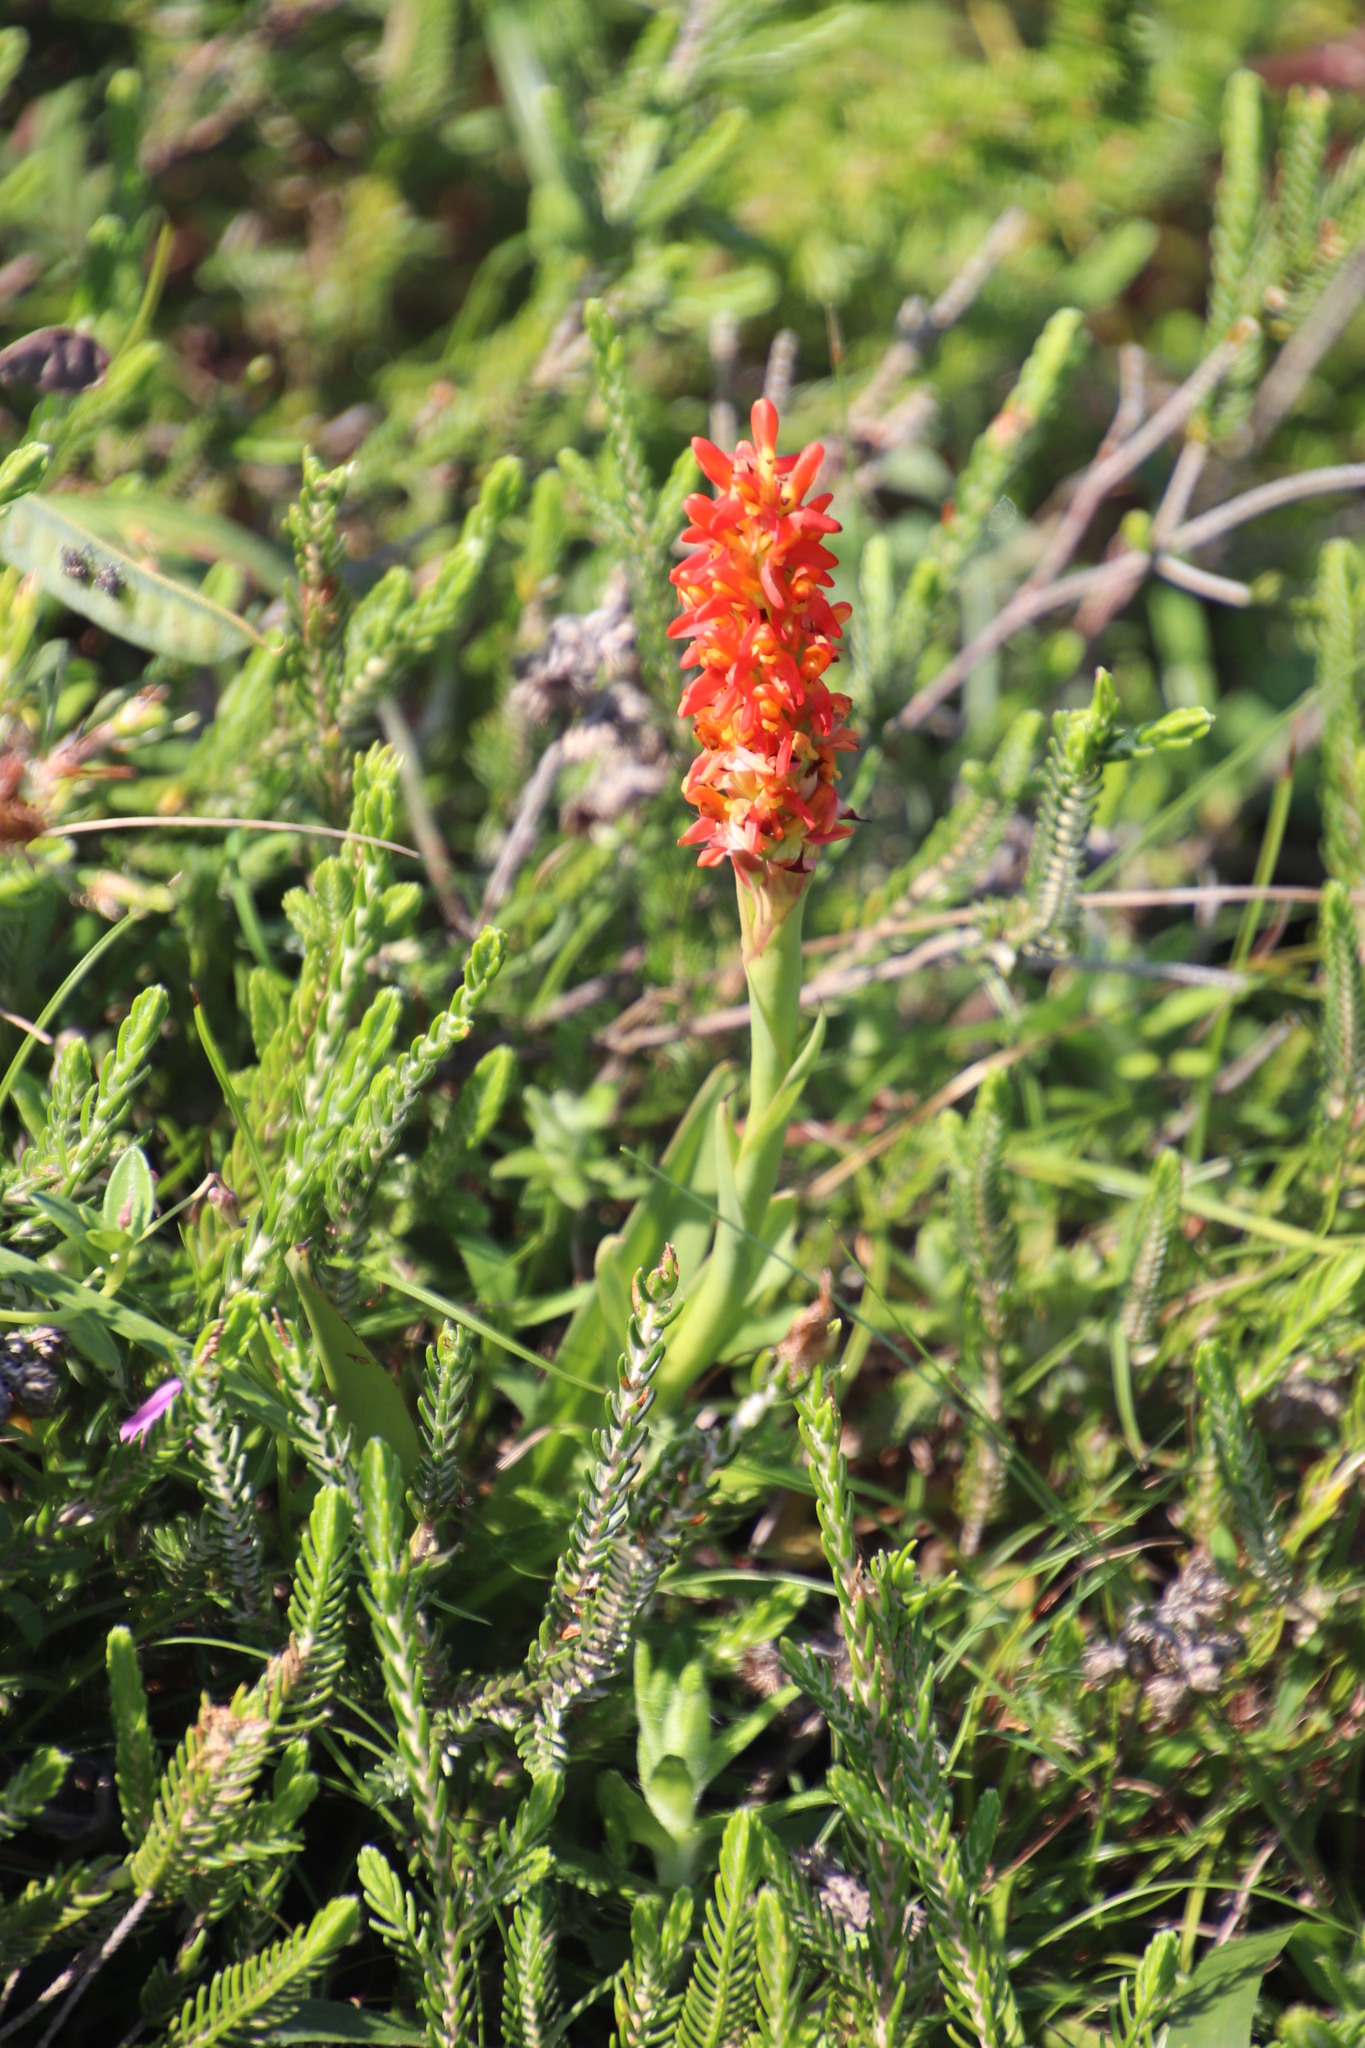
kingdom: Plantae
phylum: Tracheophyta
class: Liliopsida
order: Asparagales
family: Orchidaceae
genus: Disa
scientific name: Disa polygonoides
